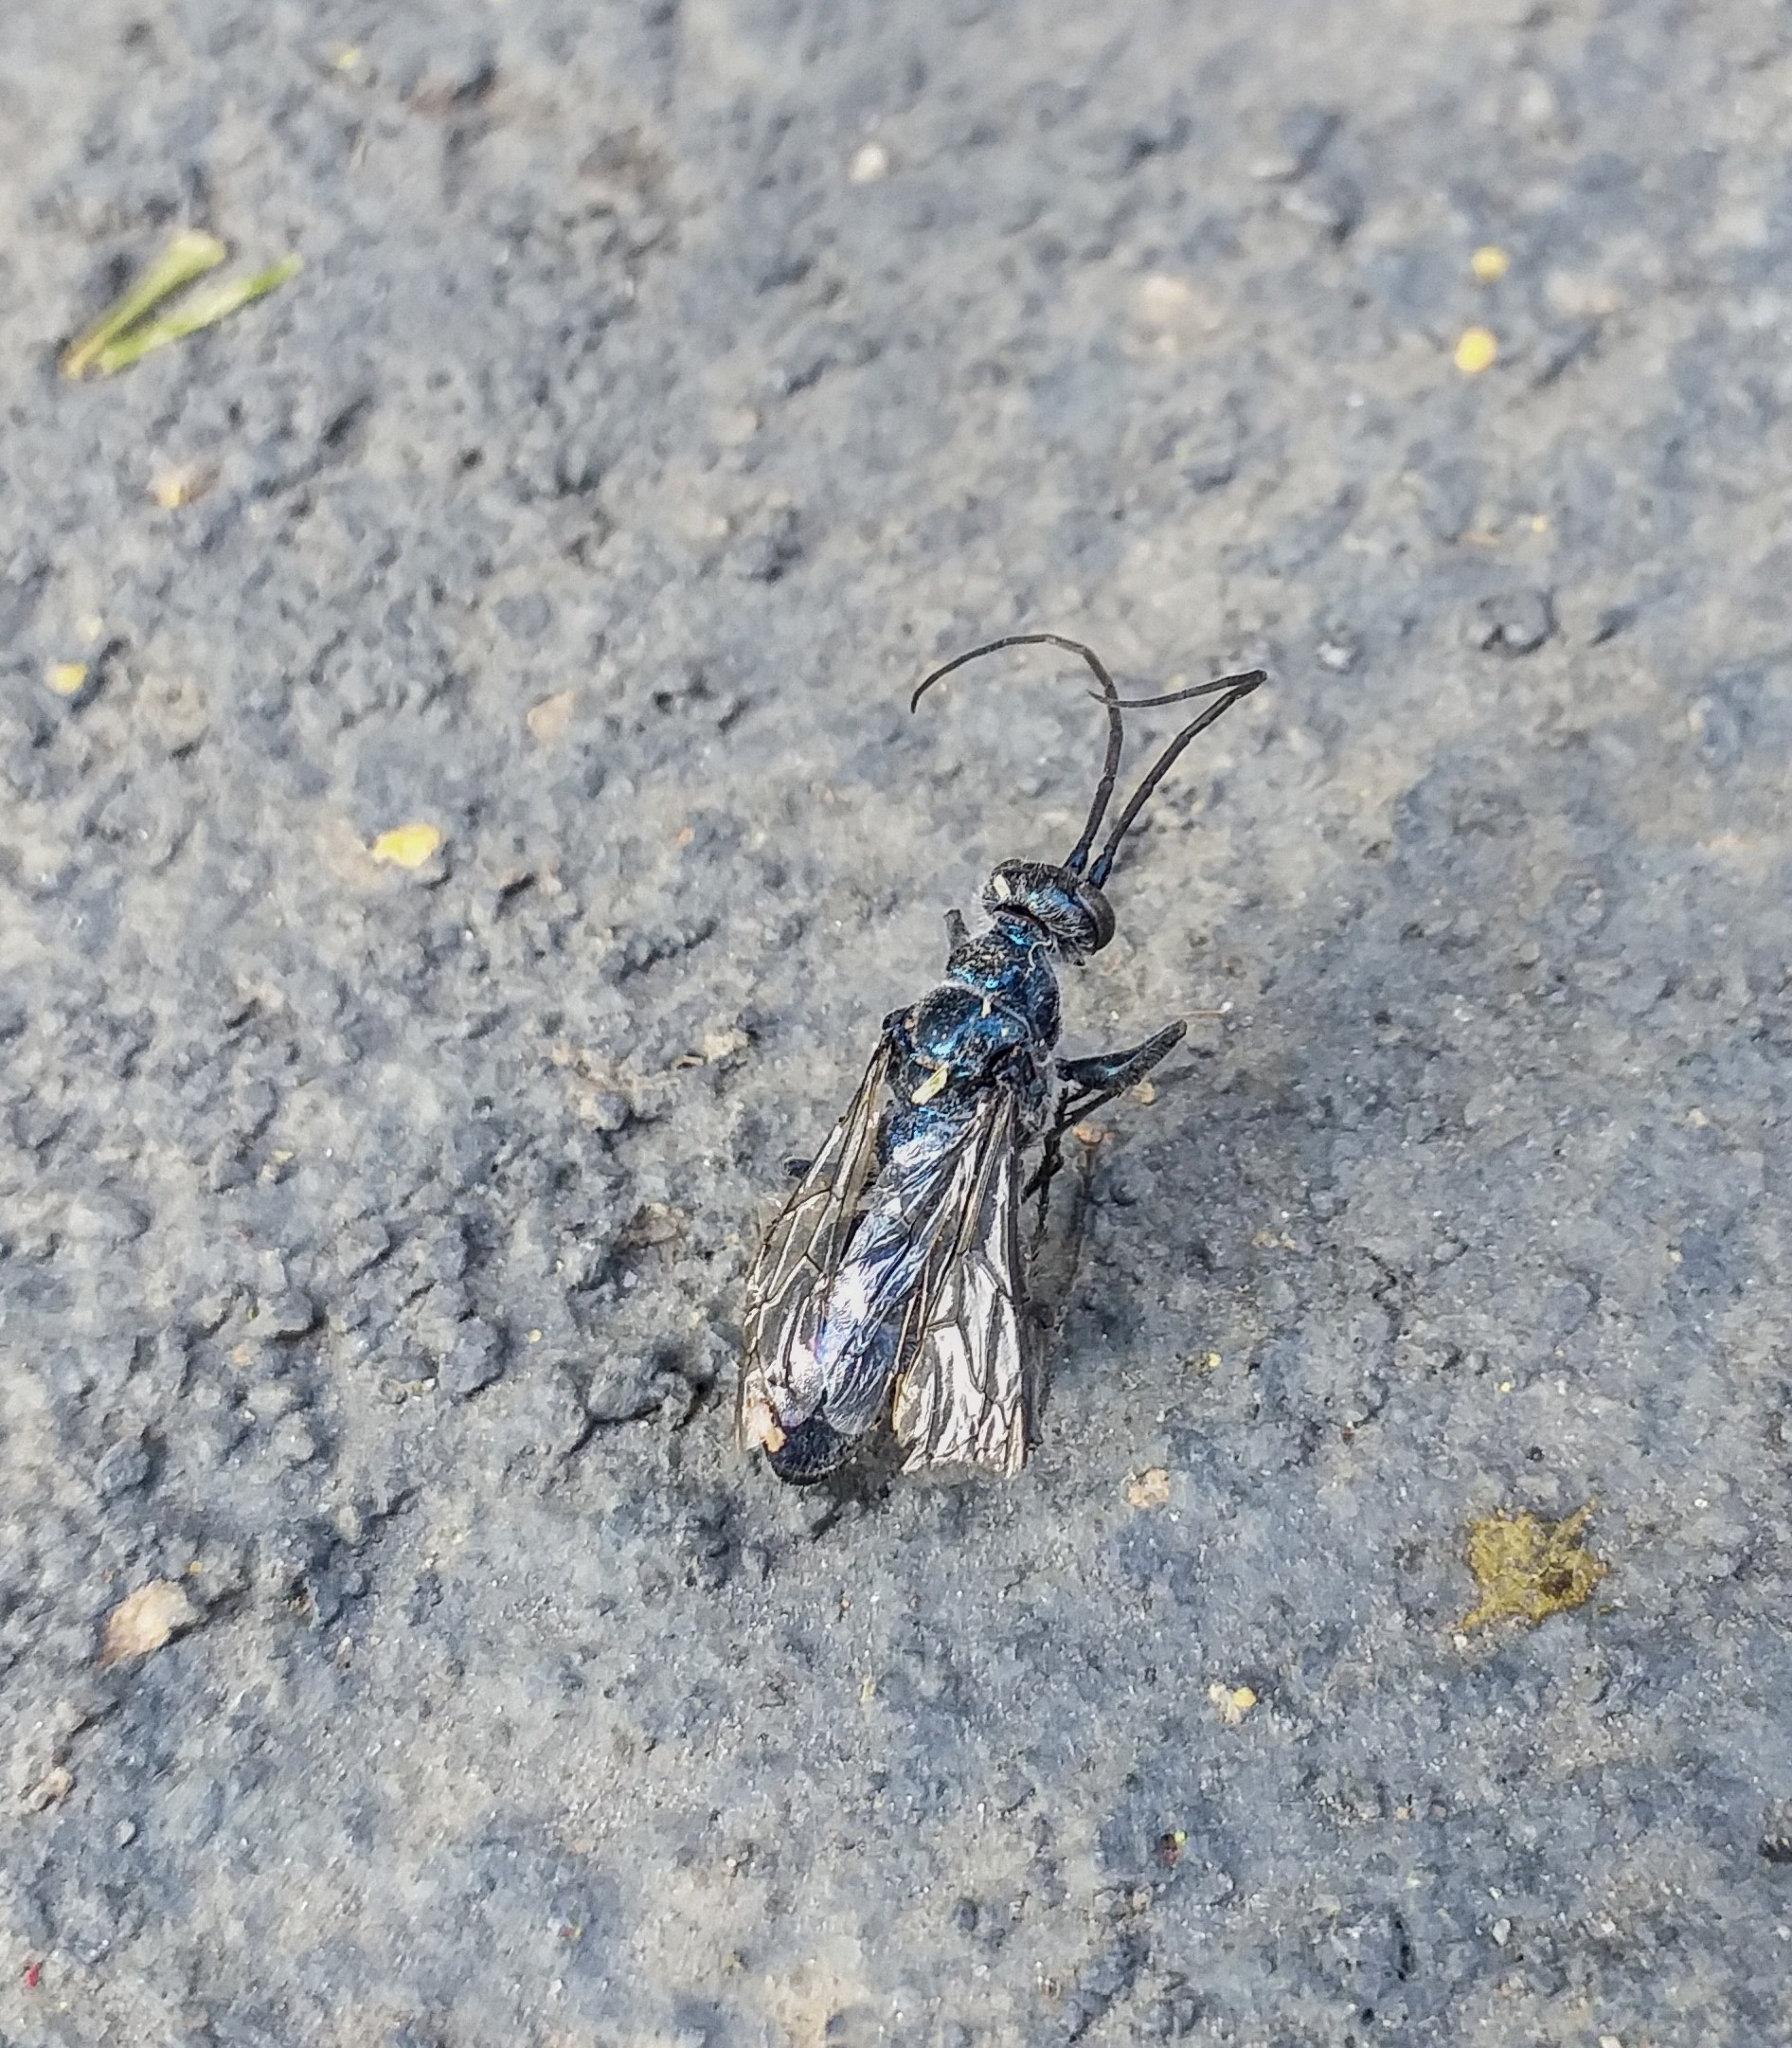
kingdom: Animalia
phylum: Arthropoda
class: Insecta
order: Hymenoptera
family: Ampulicidae
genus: Trirogma
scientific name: Trirogma caerulea
